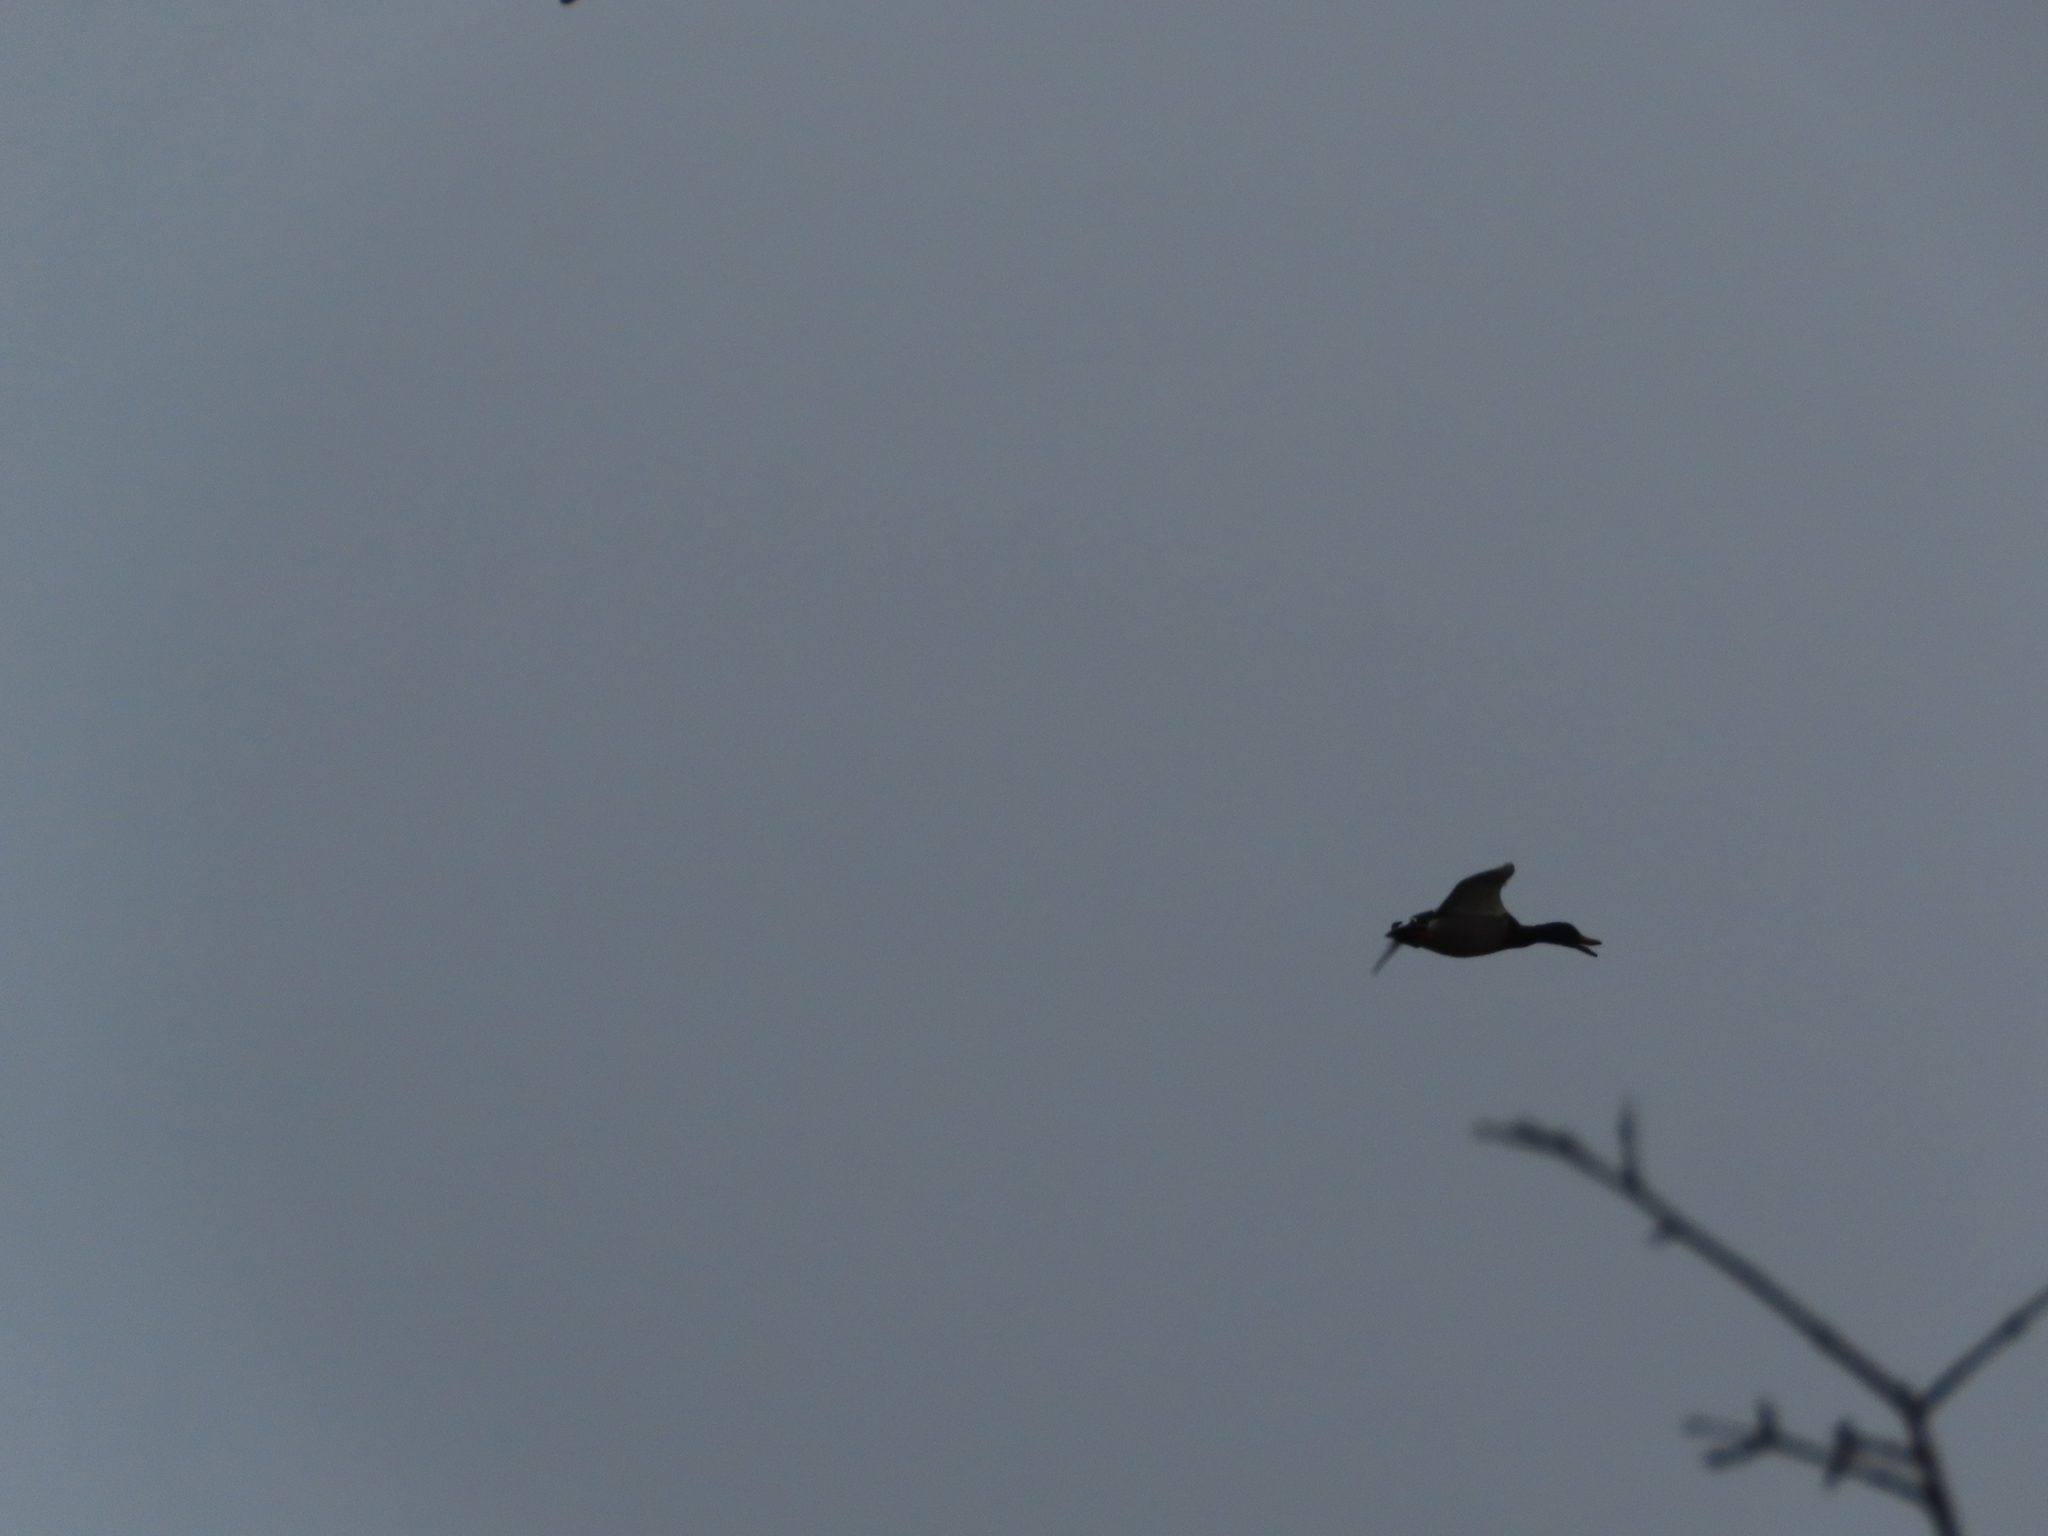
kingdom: Animalia
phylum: Chordata
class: Aves
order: Anseriformes
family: Anatidae
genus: Anas
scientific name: Anas platyrhynchos
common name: Mallard
